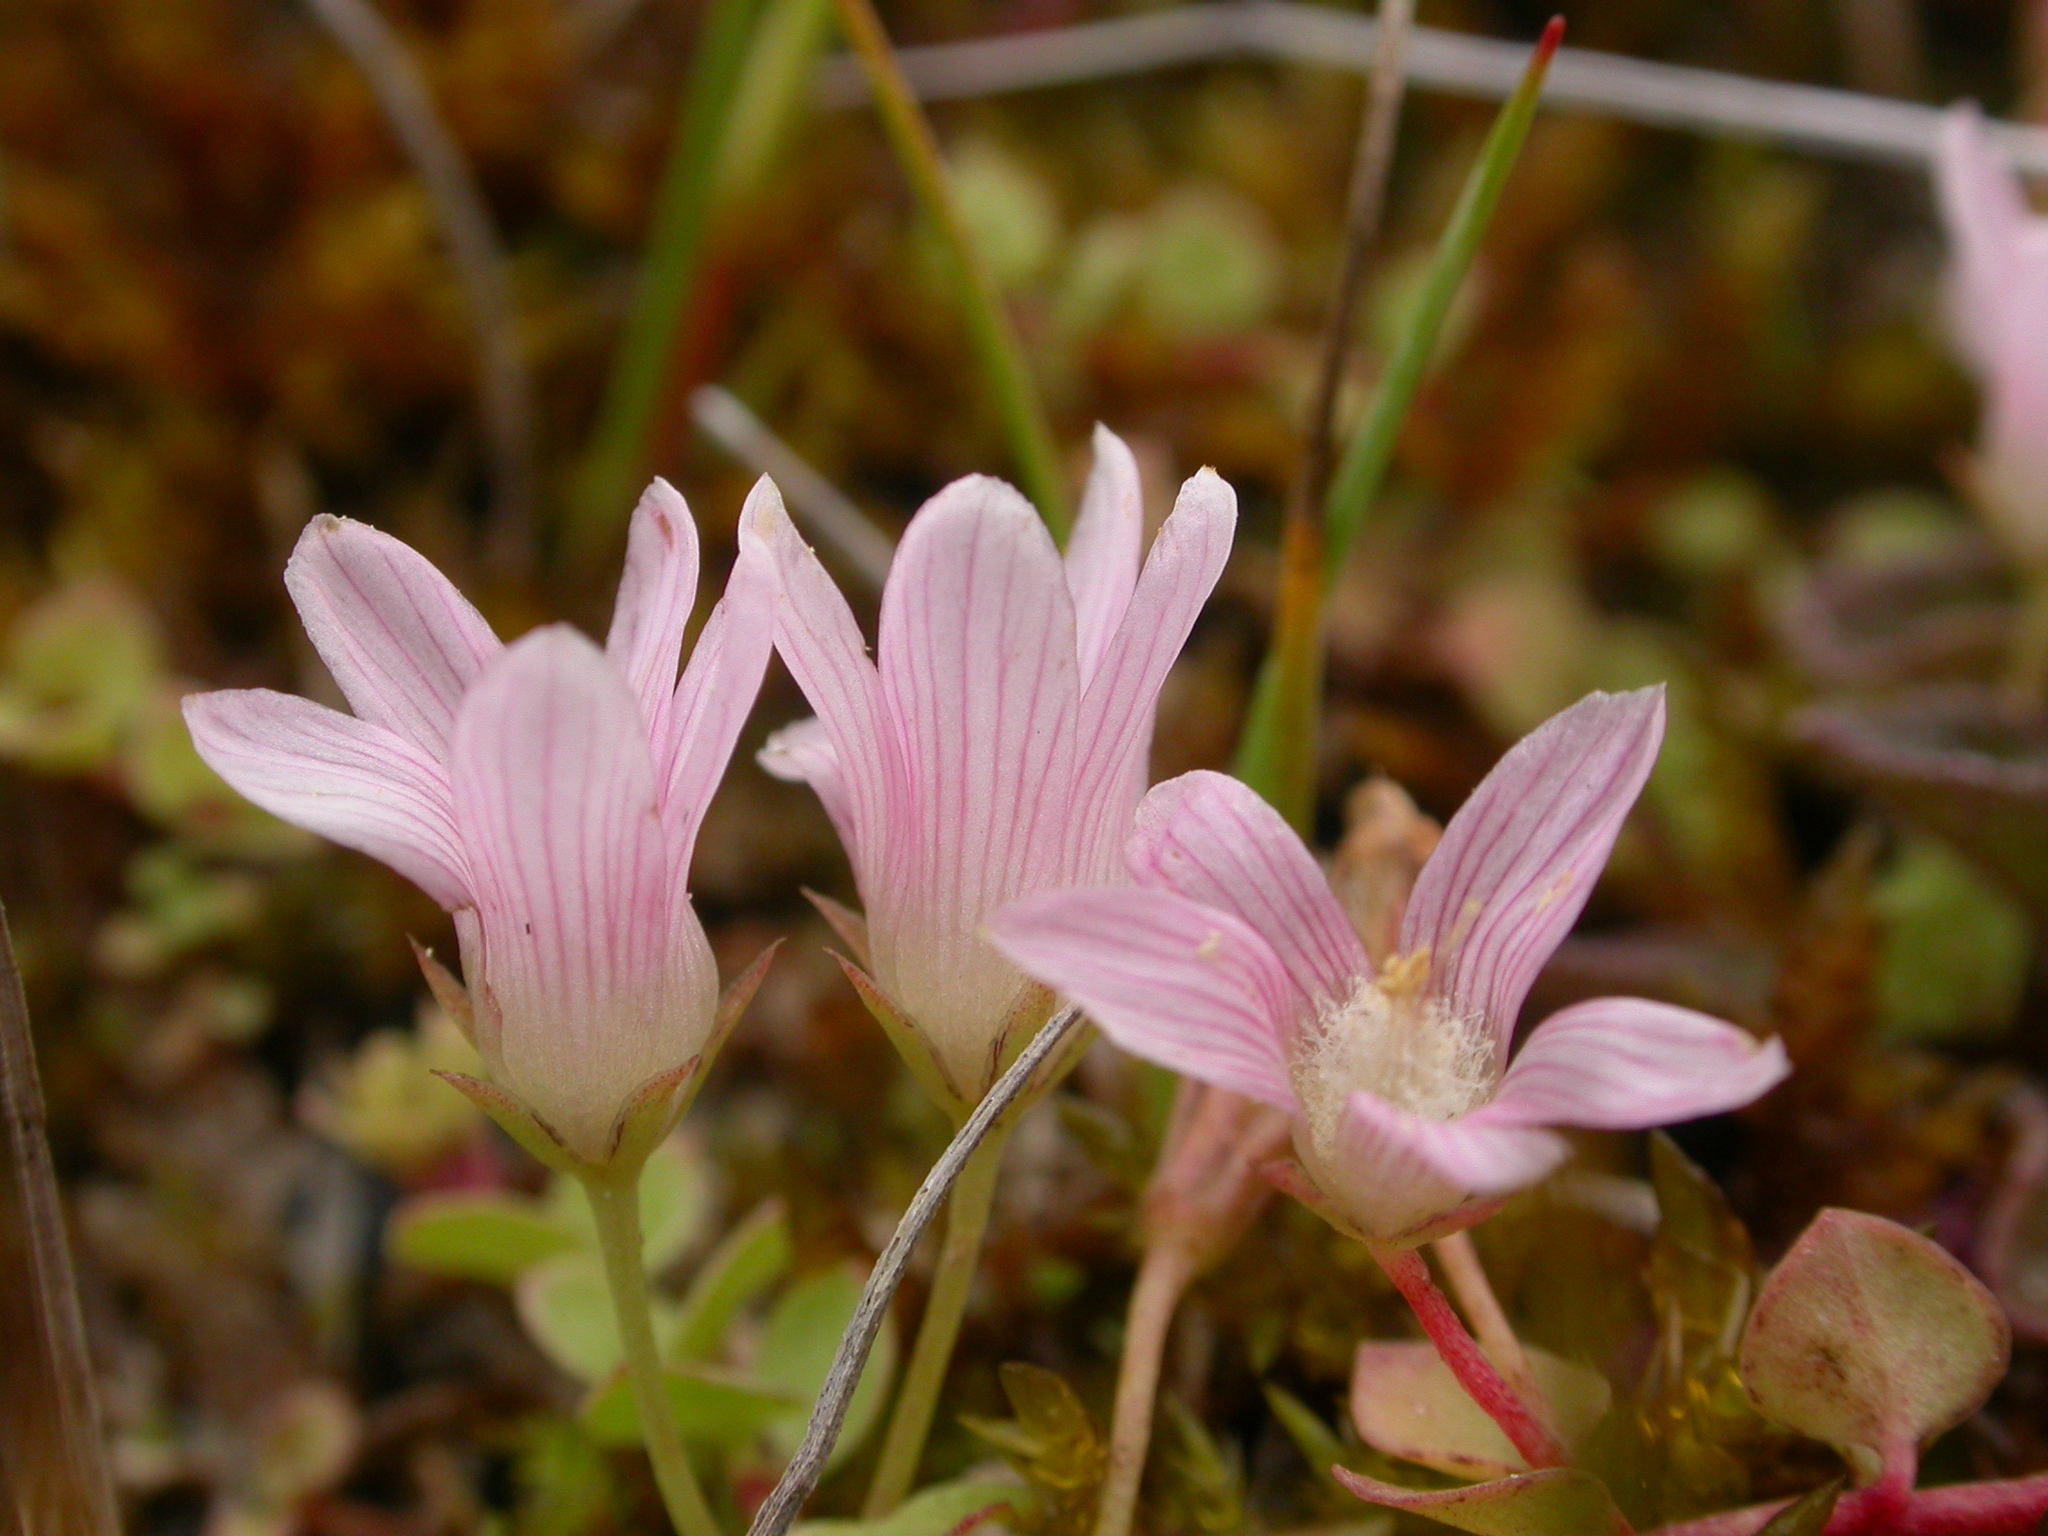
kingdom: Plantae
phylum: Tracheophyta
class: Magnoliopsida
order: Ericales
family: Primulaceae
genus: Lysimachia
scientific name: Lysimachia tenella
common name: European bog pimpernel
